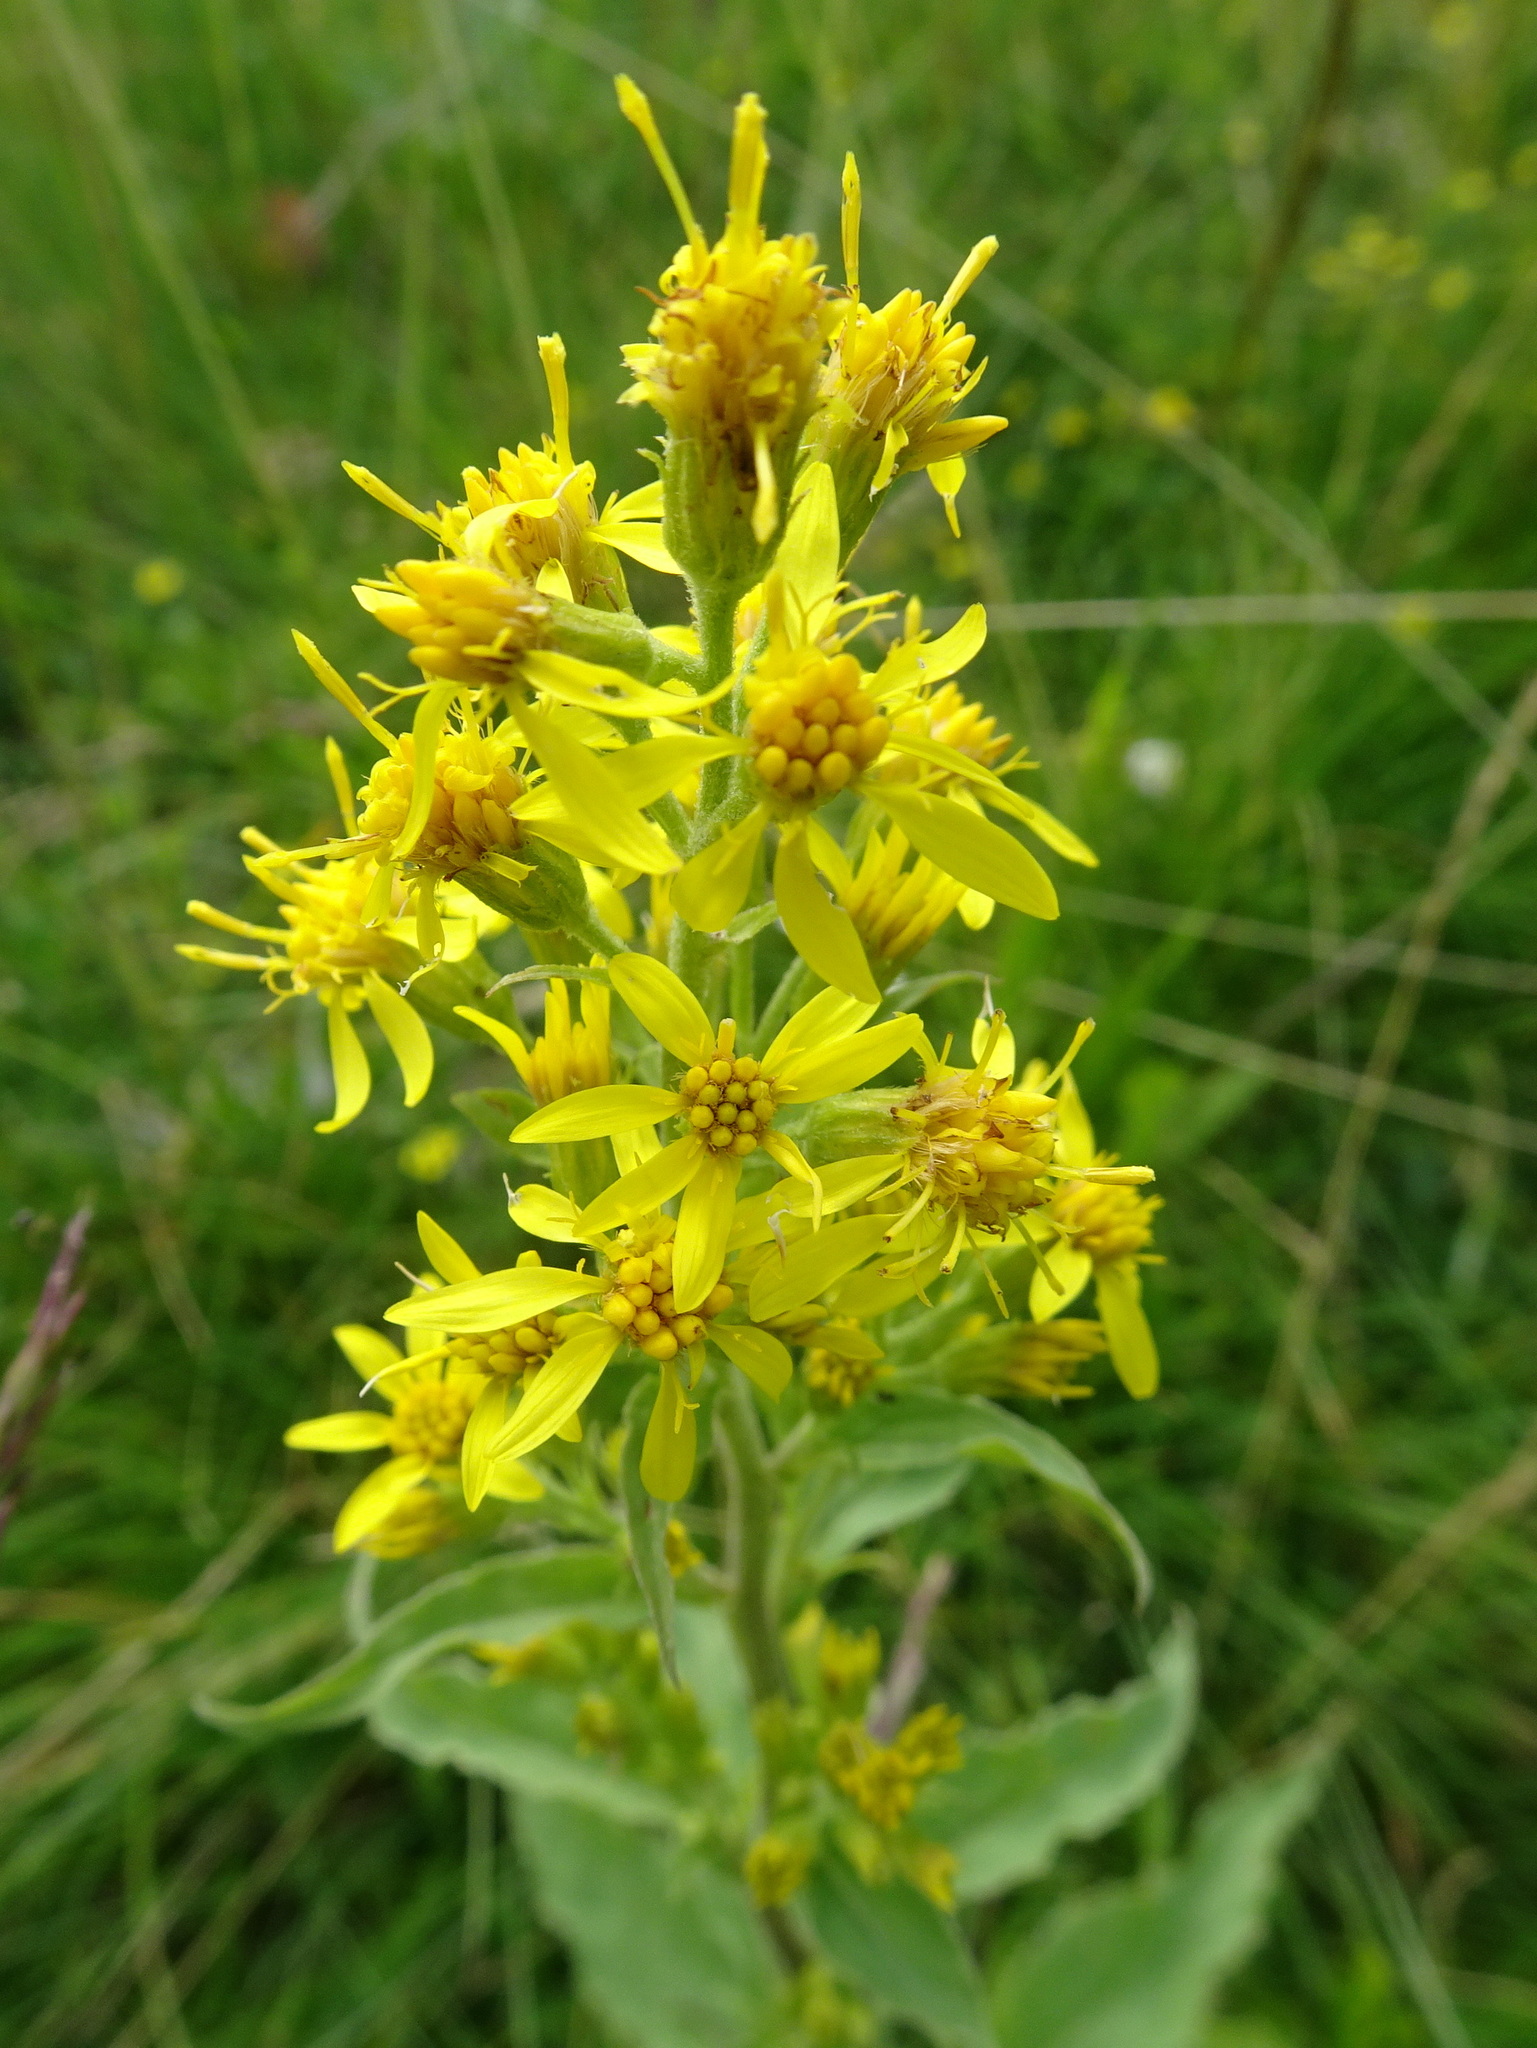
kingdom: Plantae
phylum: Tracheophyta
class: Magnoliopsida
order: Asterales
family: Asteraceae
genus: Solidago
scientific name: Solidago virgaurea
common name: Goldenrod
